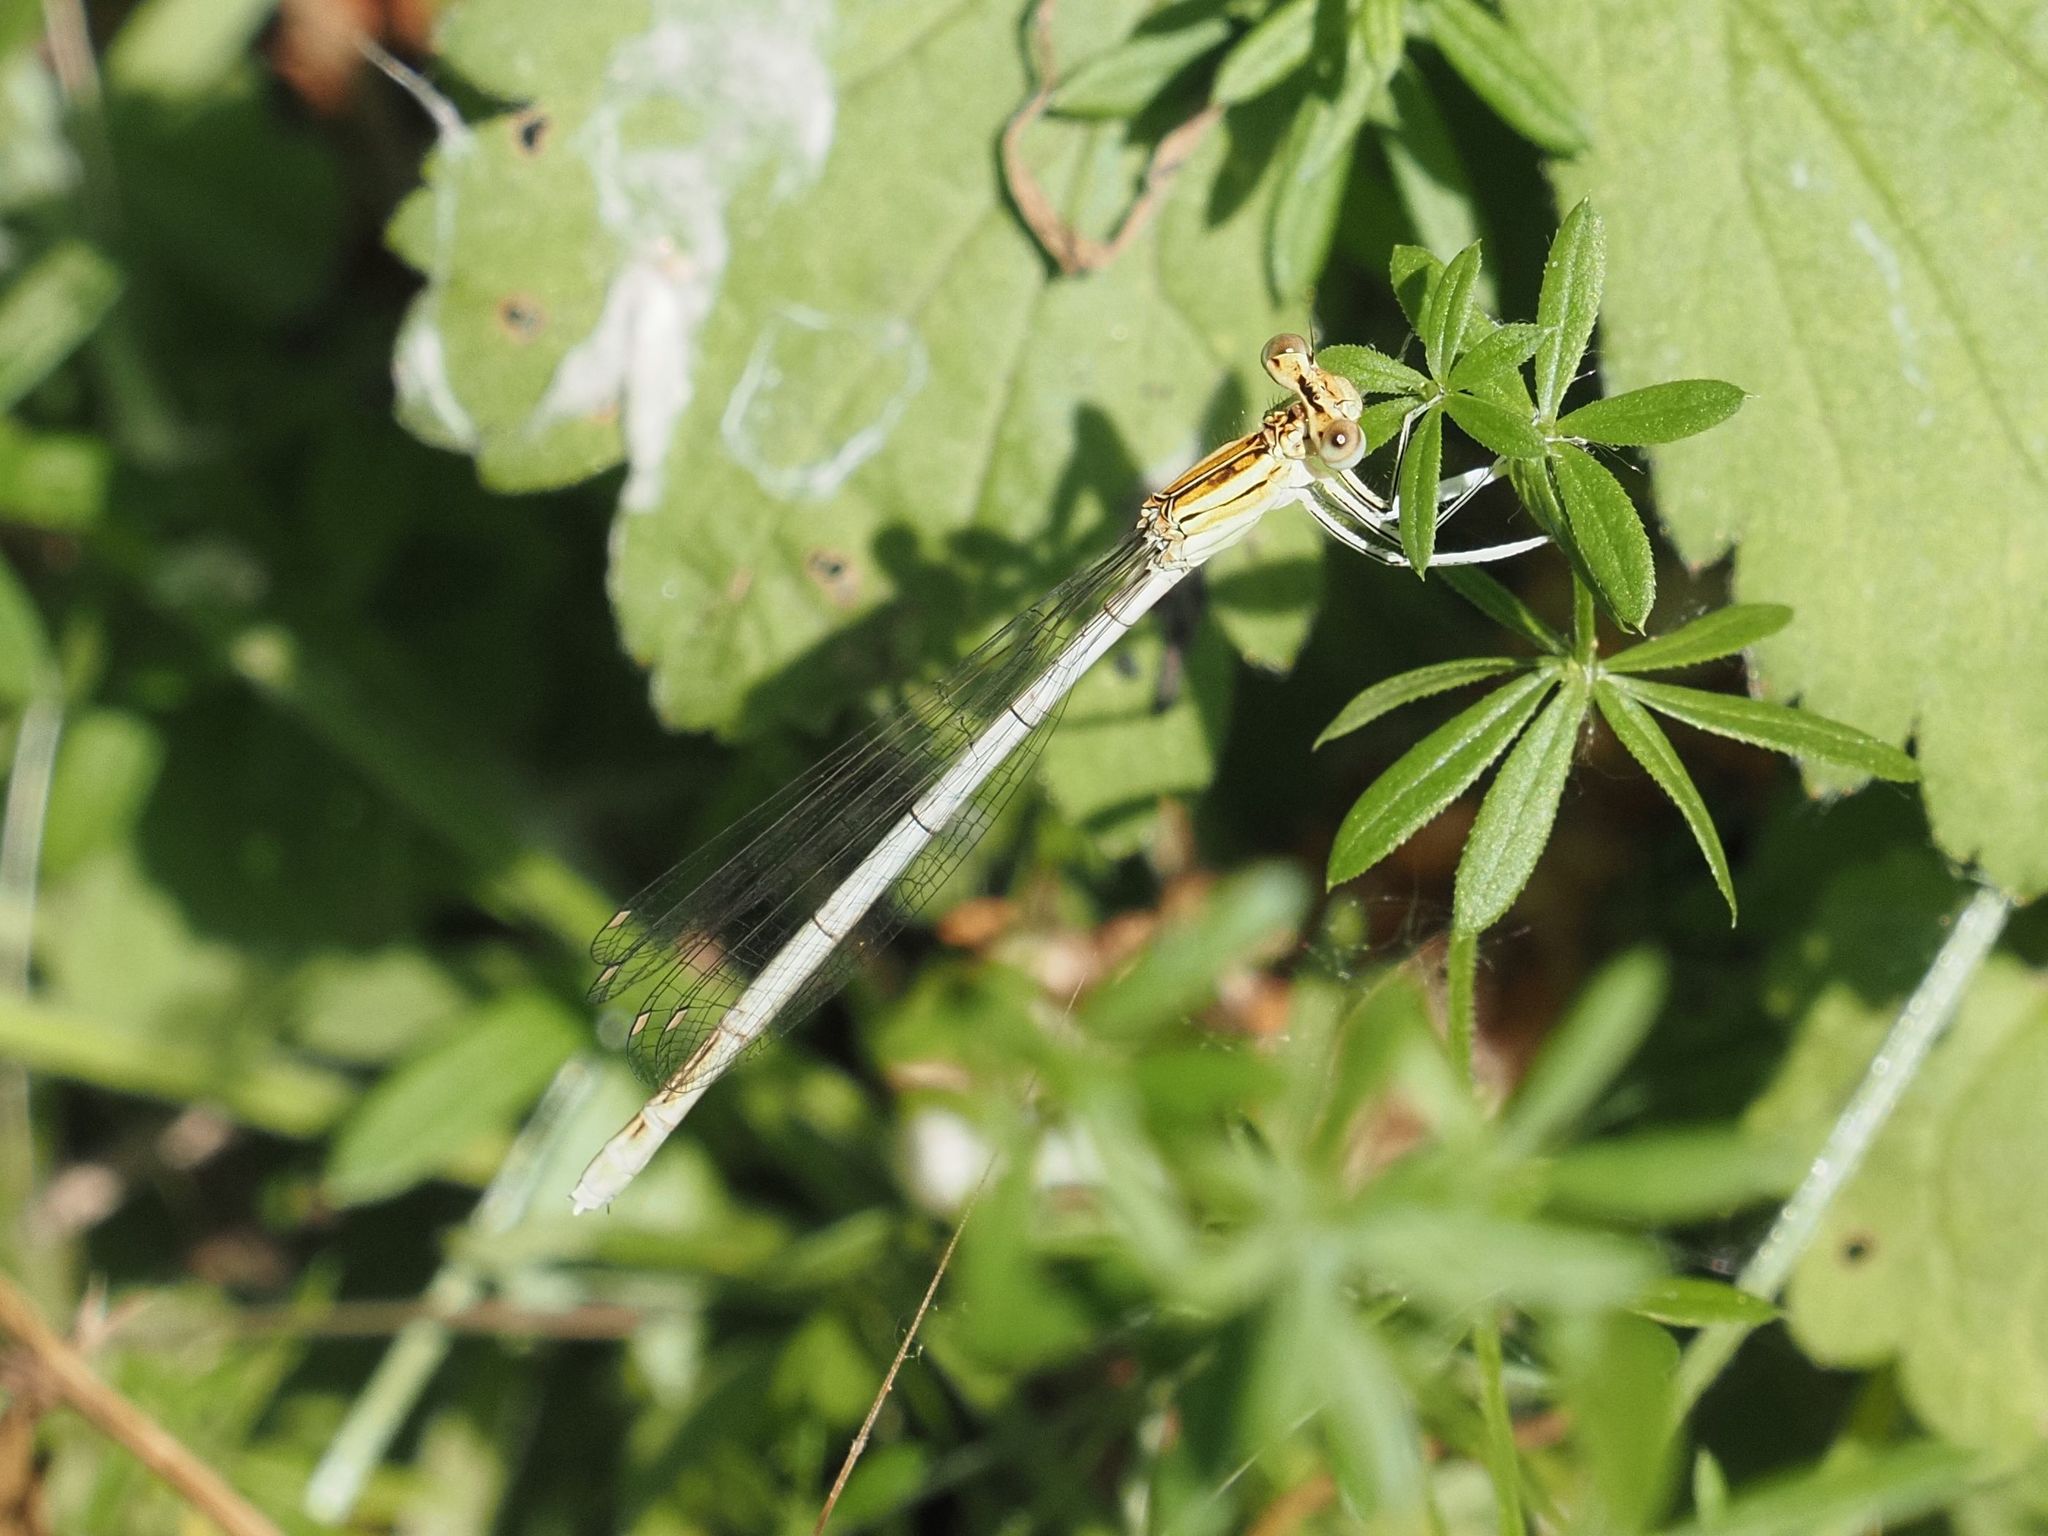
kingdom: Animalia
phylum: Arthropoda
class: Insecta
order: Odonata
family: Platycnemididae
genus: Platycnemis
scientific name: Platycnemis pennipes
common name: White-legged damselfly
